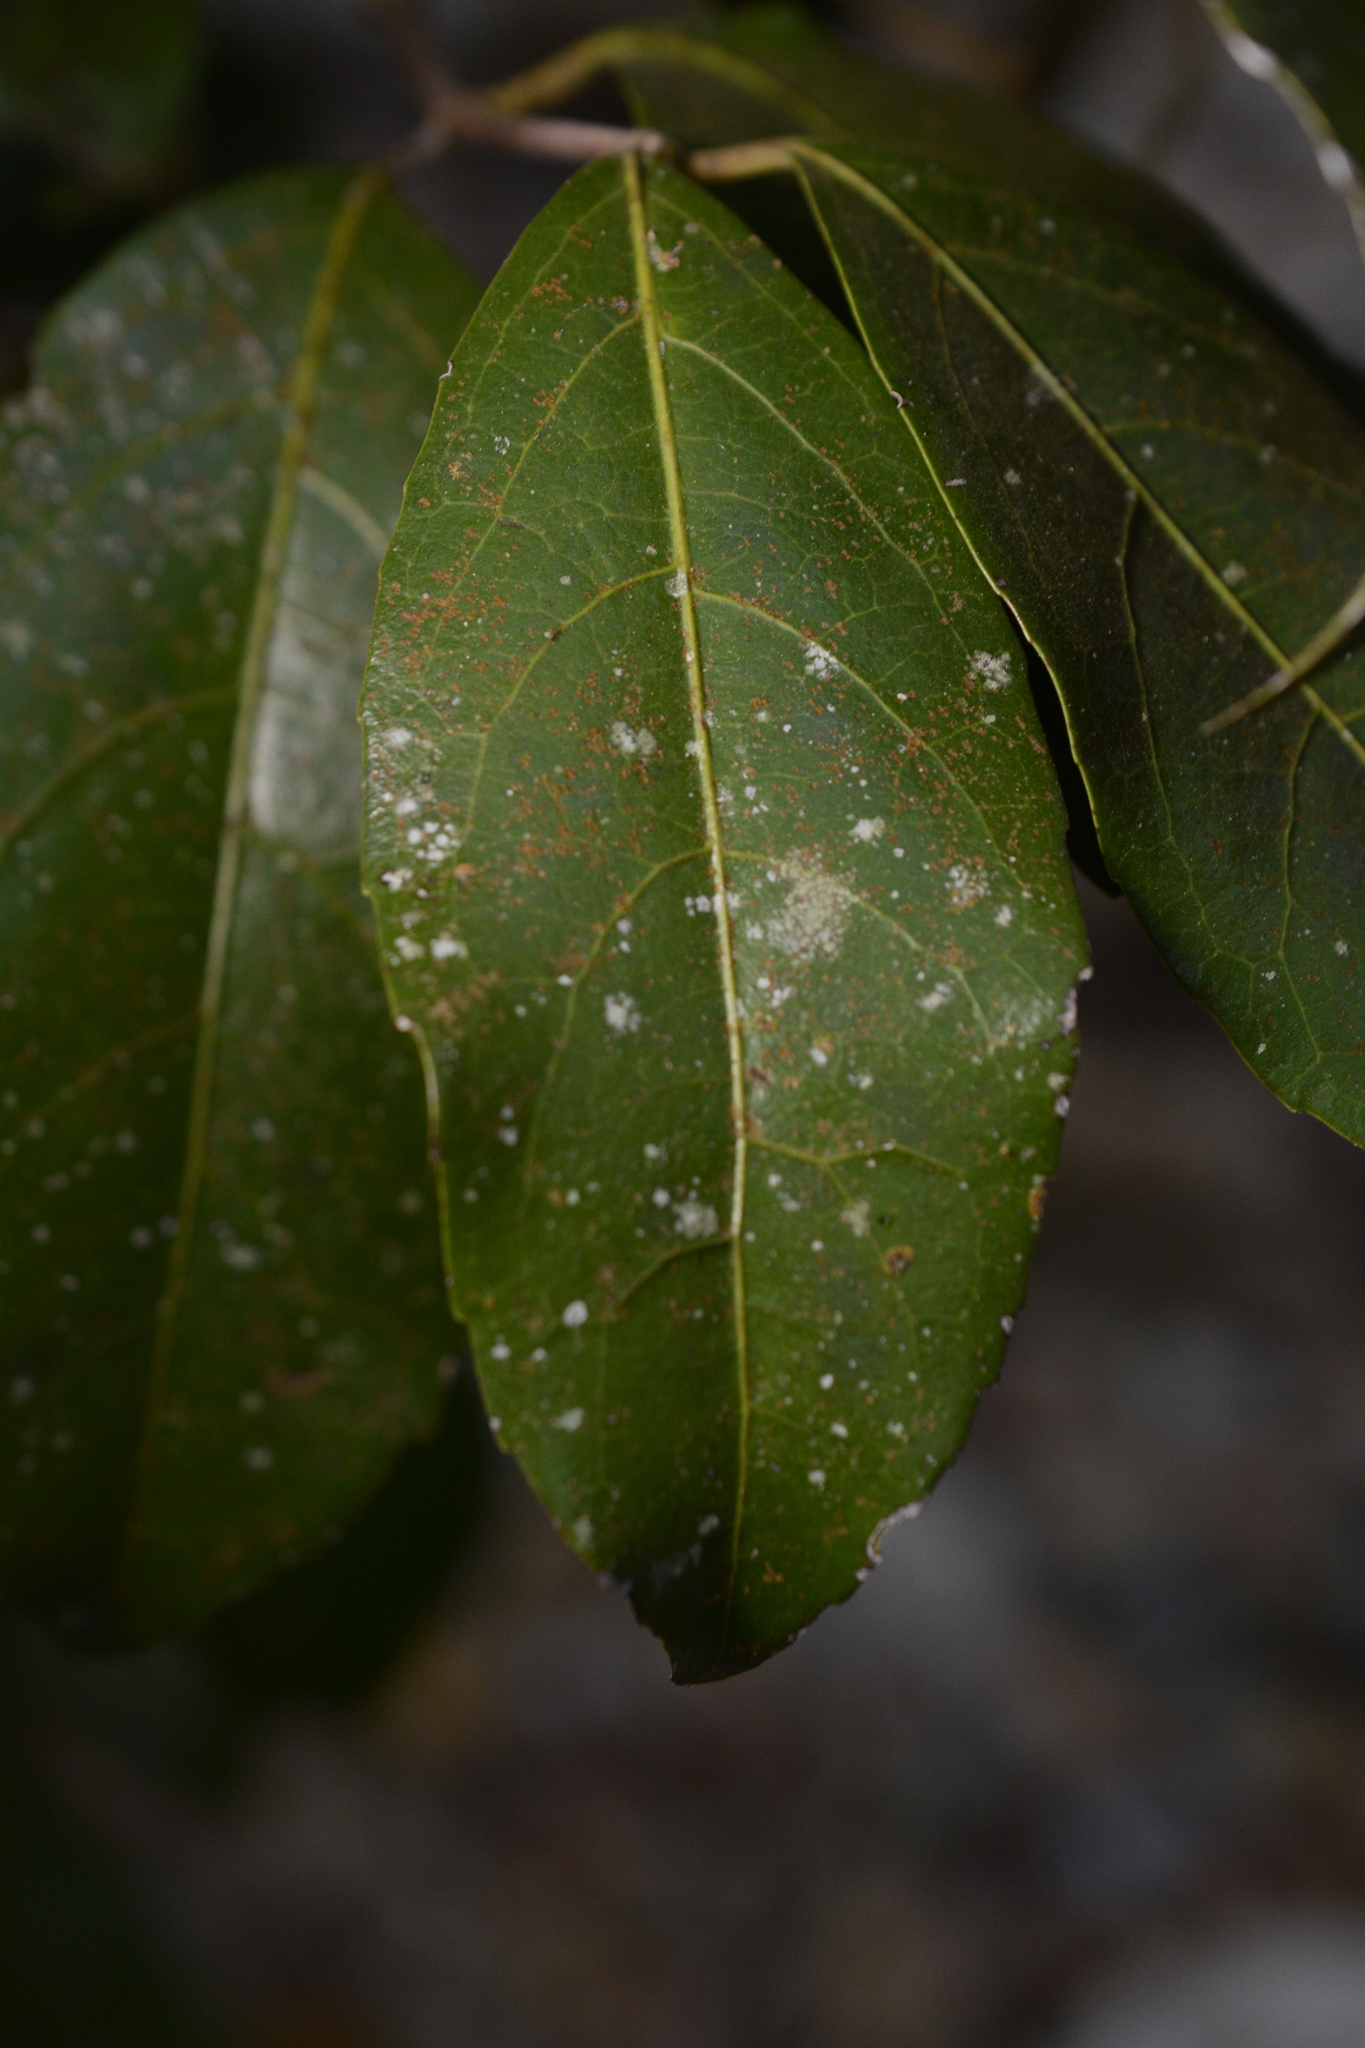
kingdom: Plantae
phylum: Tracheophyta
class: Magnoliopsida
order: Celastrales
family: Celastraceae
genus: Pristimera
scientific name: Pristimera arnottiana
